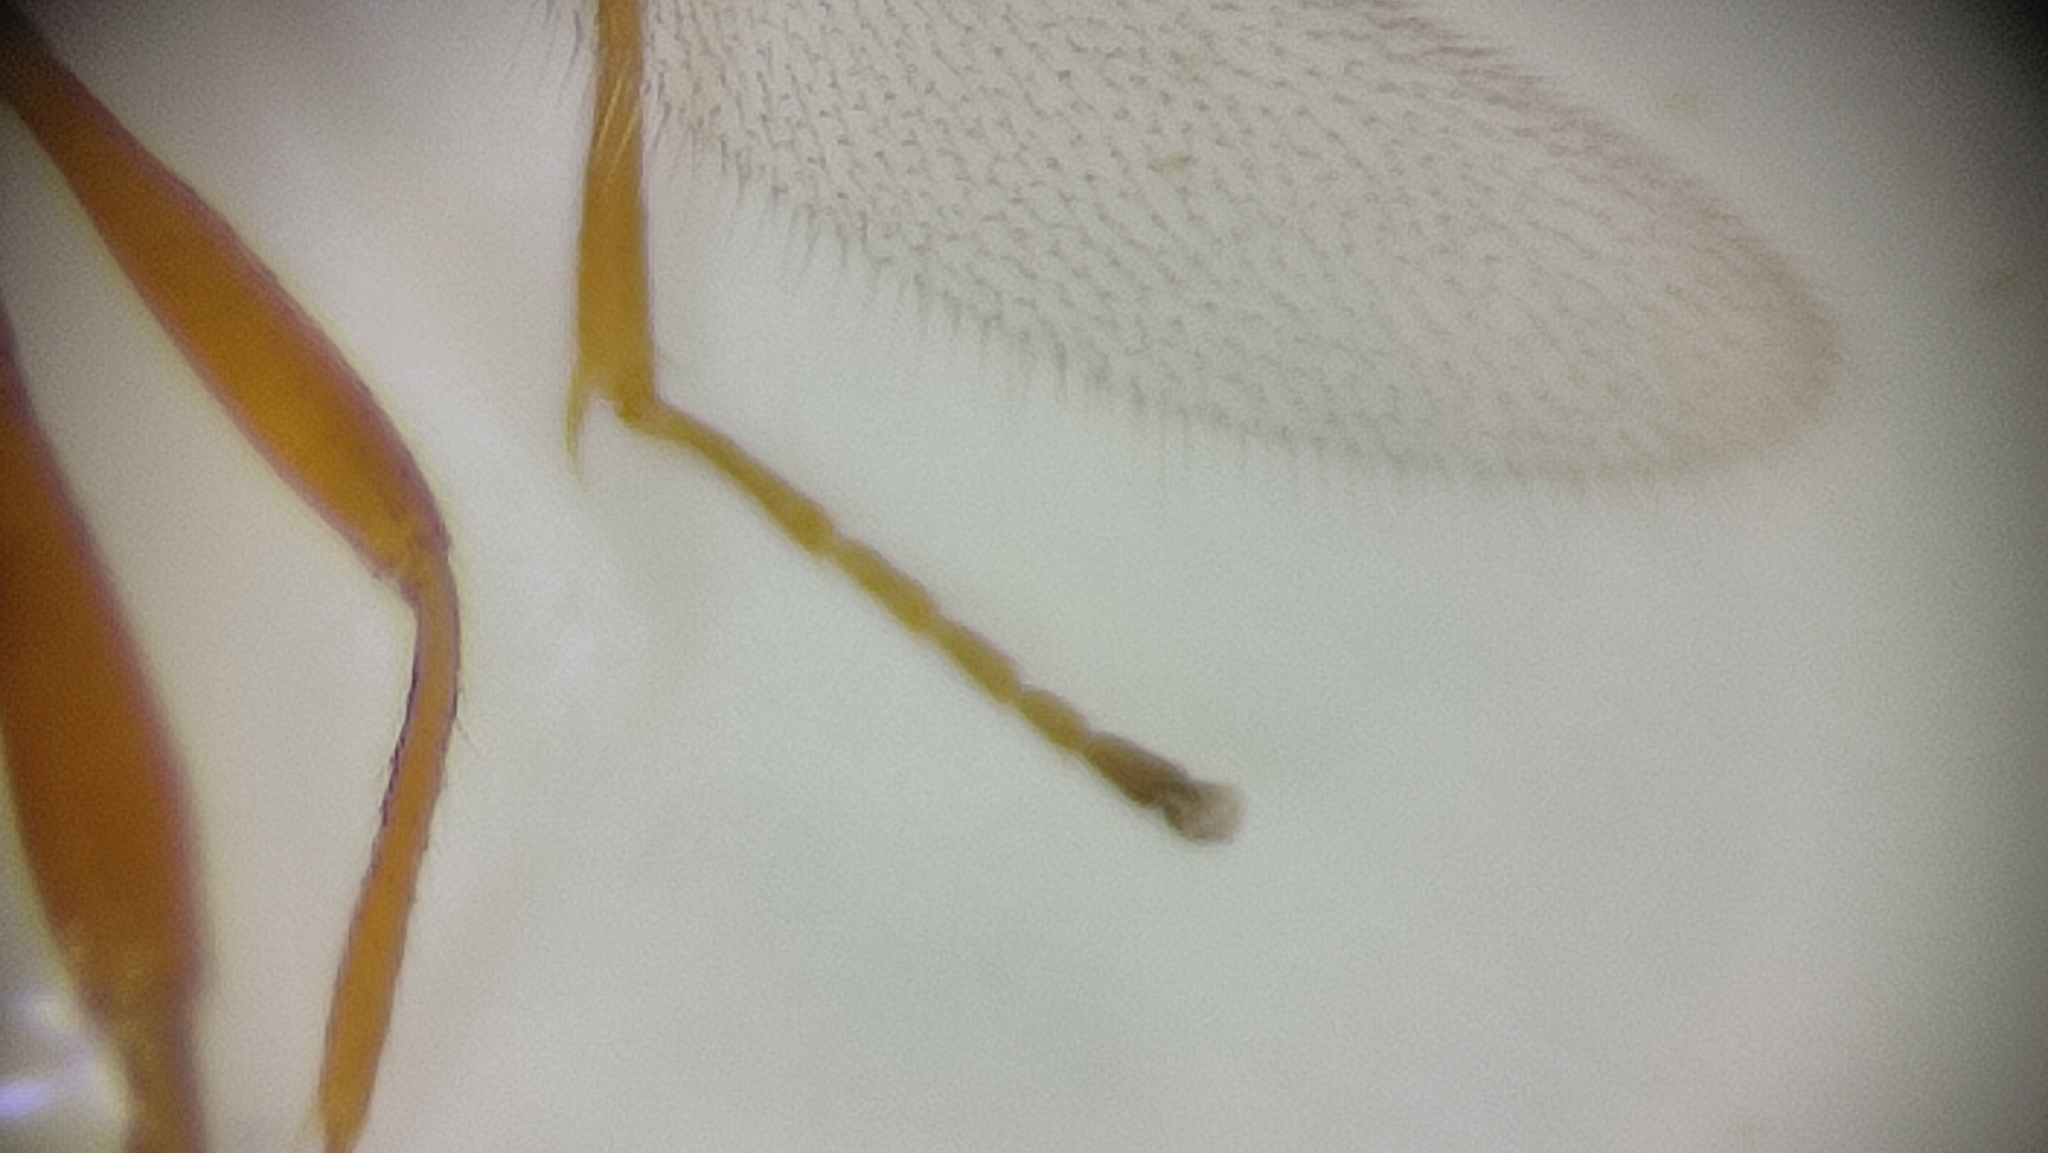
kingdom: Animalia
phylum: Arthropoda
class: Insecta
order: Hymenoptera
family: Braconidae
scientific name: Braconidae
